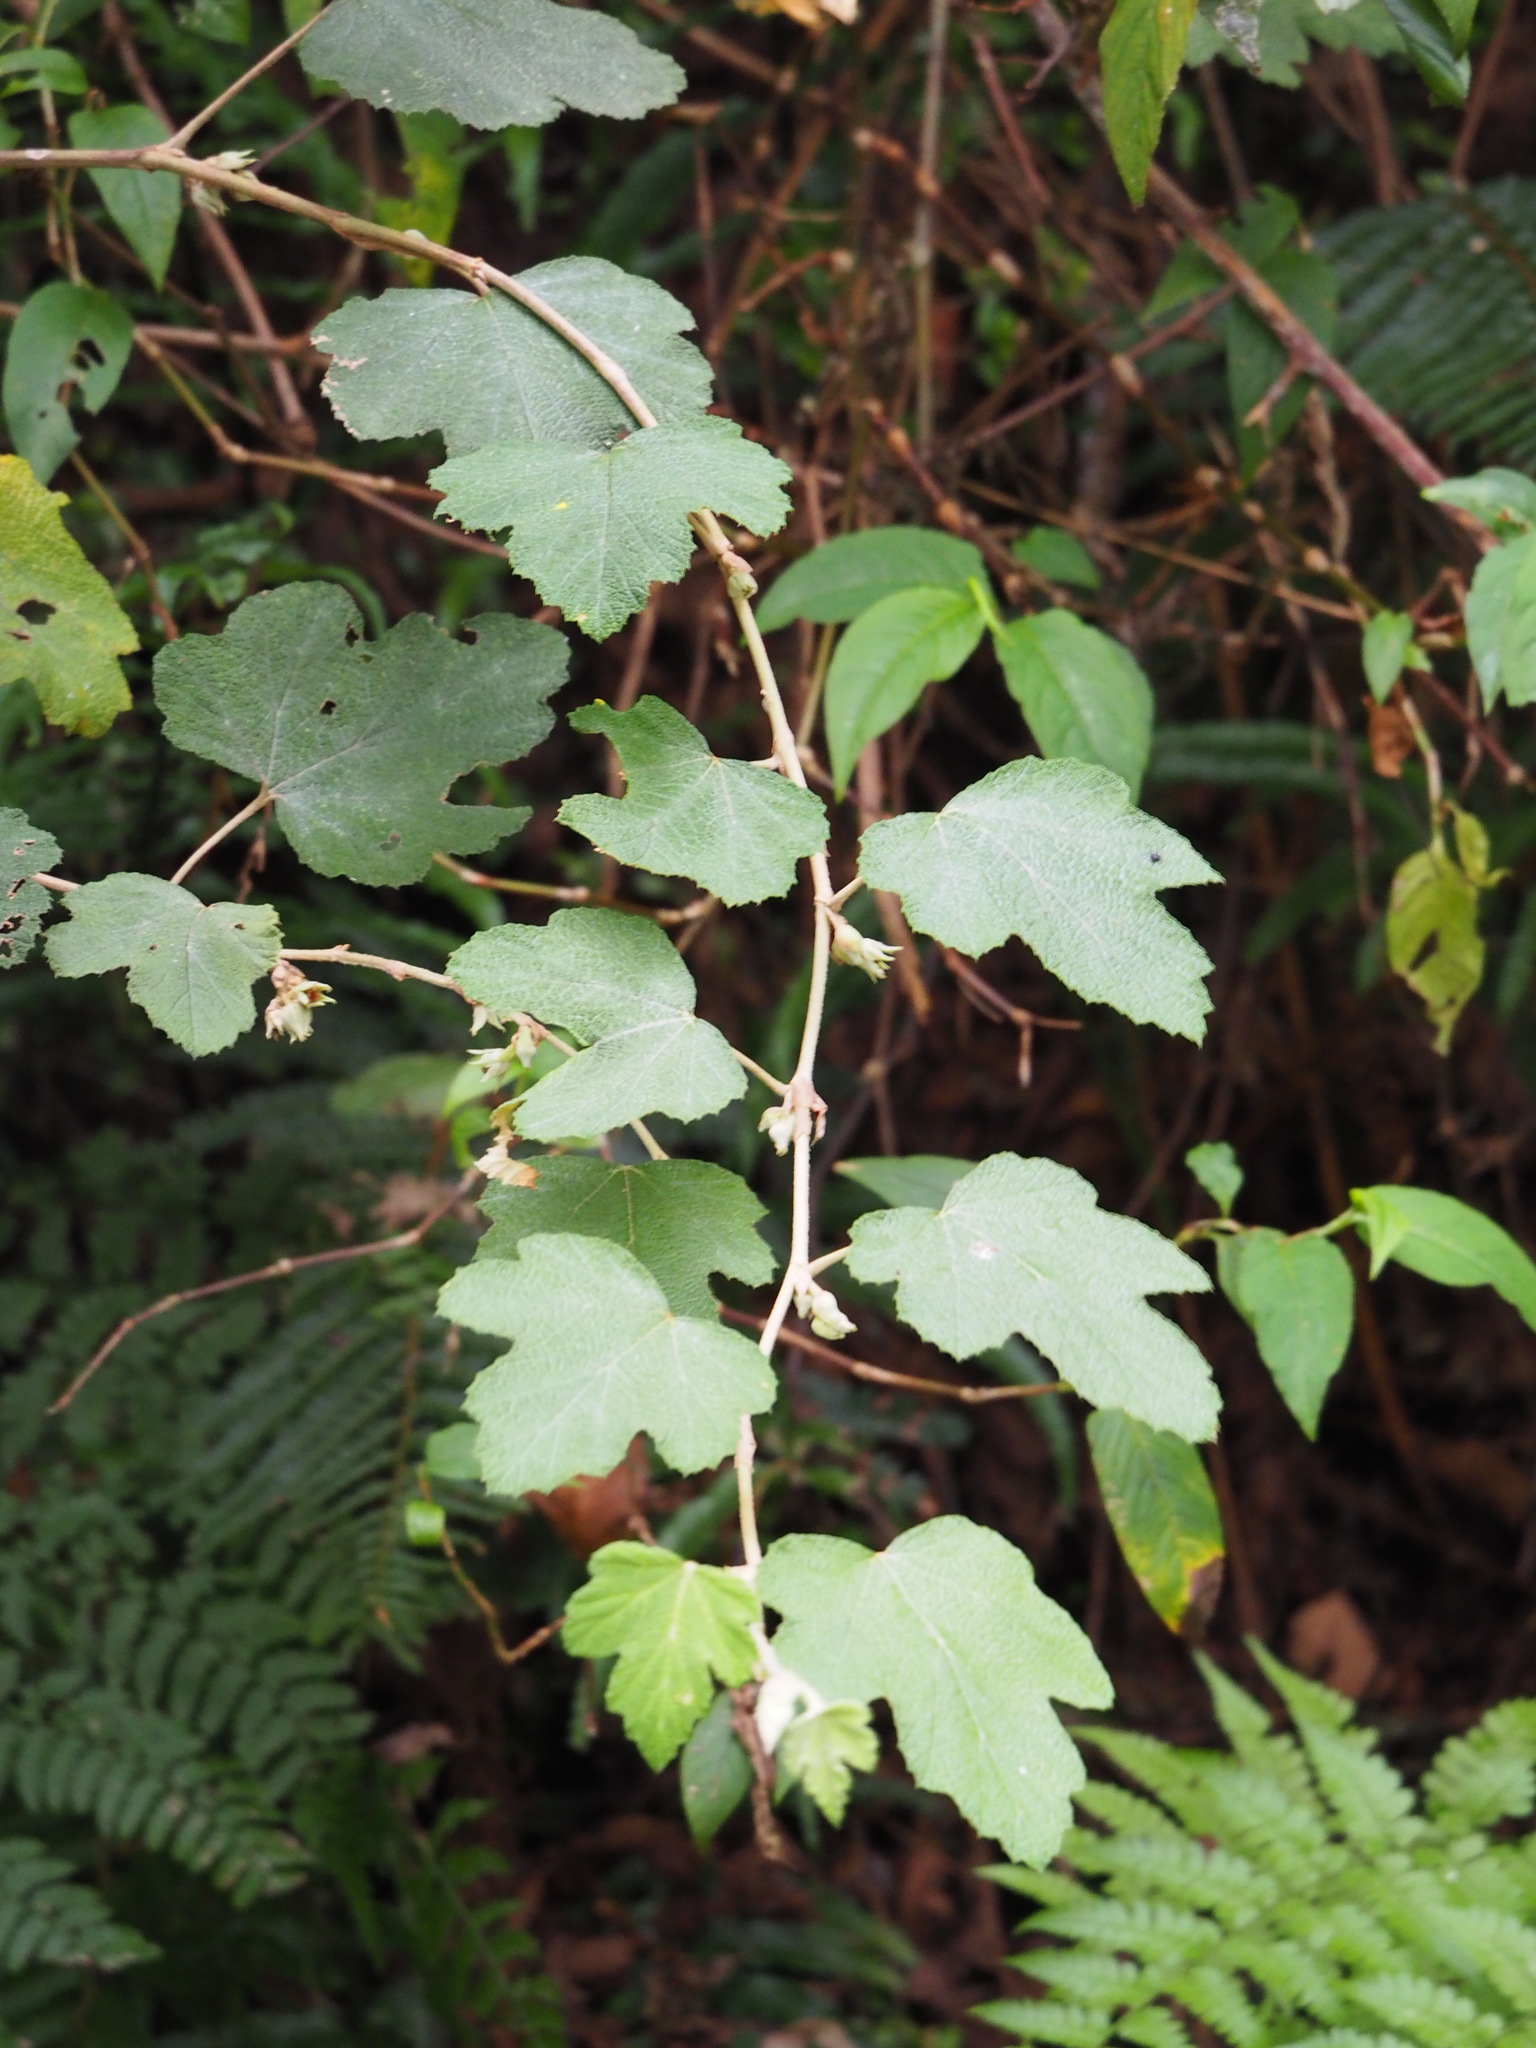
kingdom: Plantae
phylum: Tracheophyta
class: Magnoliopsida
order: Rosales
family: Rosaceae
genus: Rubus
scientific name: Rubus formosensis
